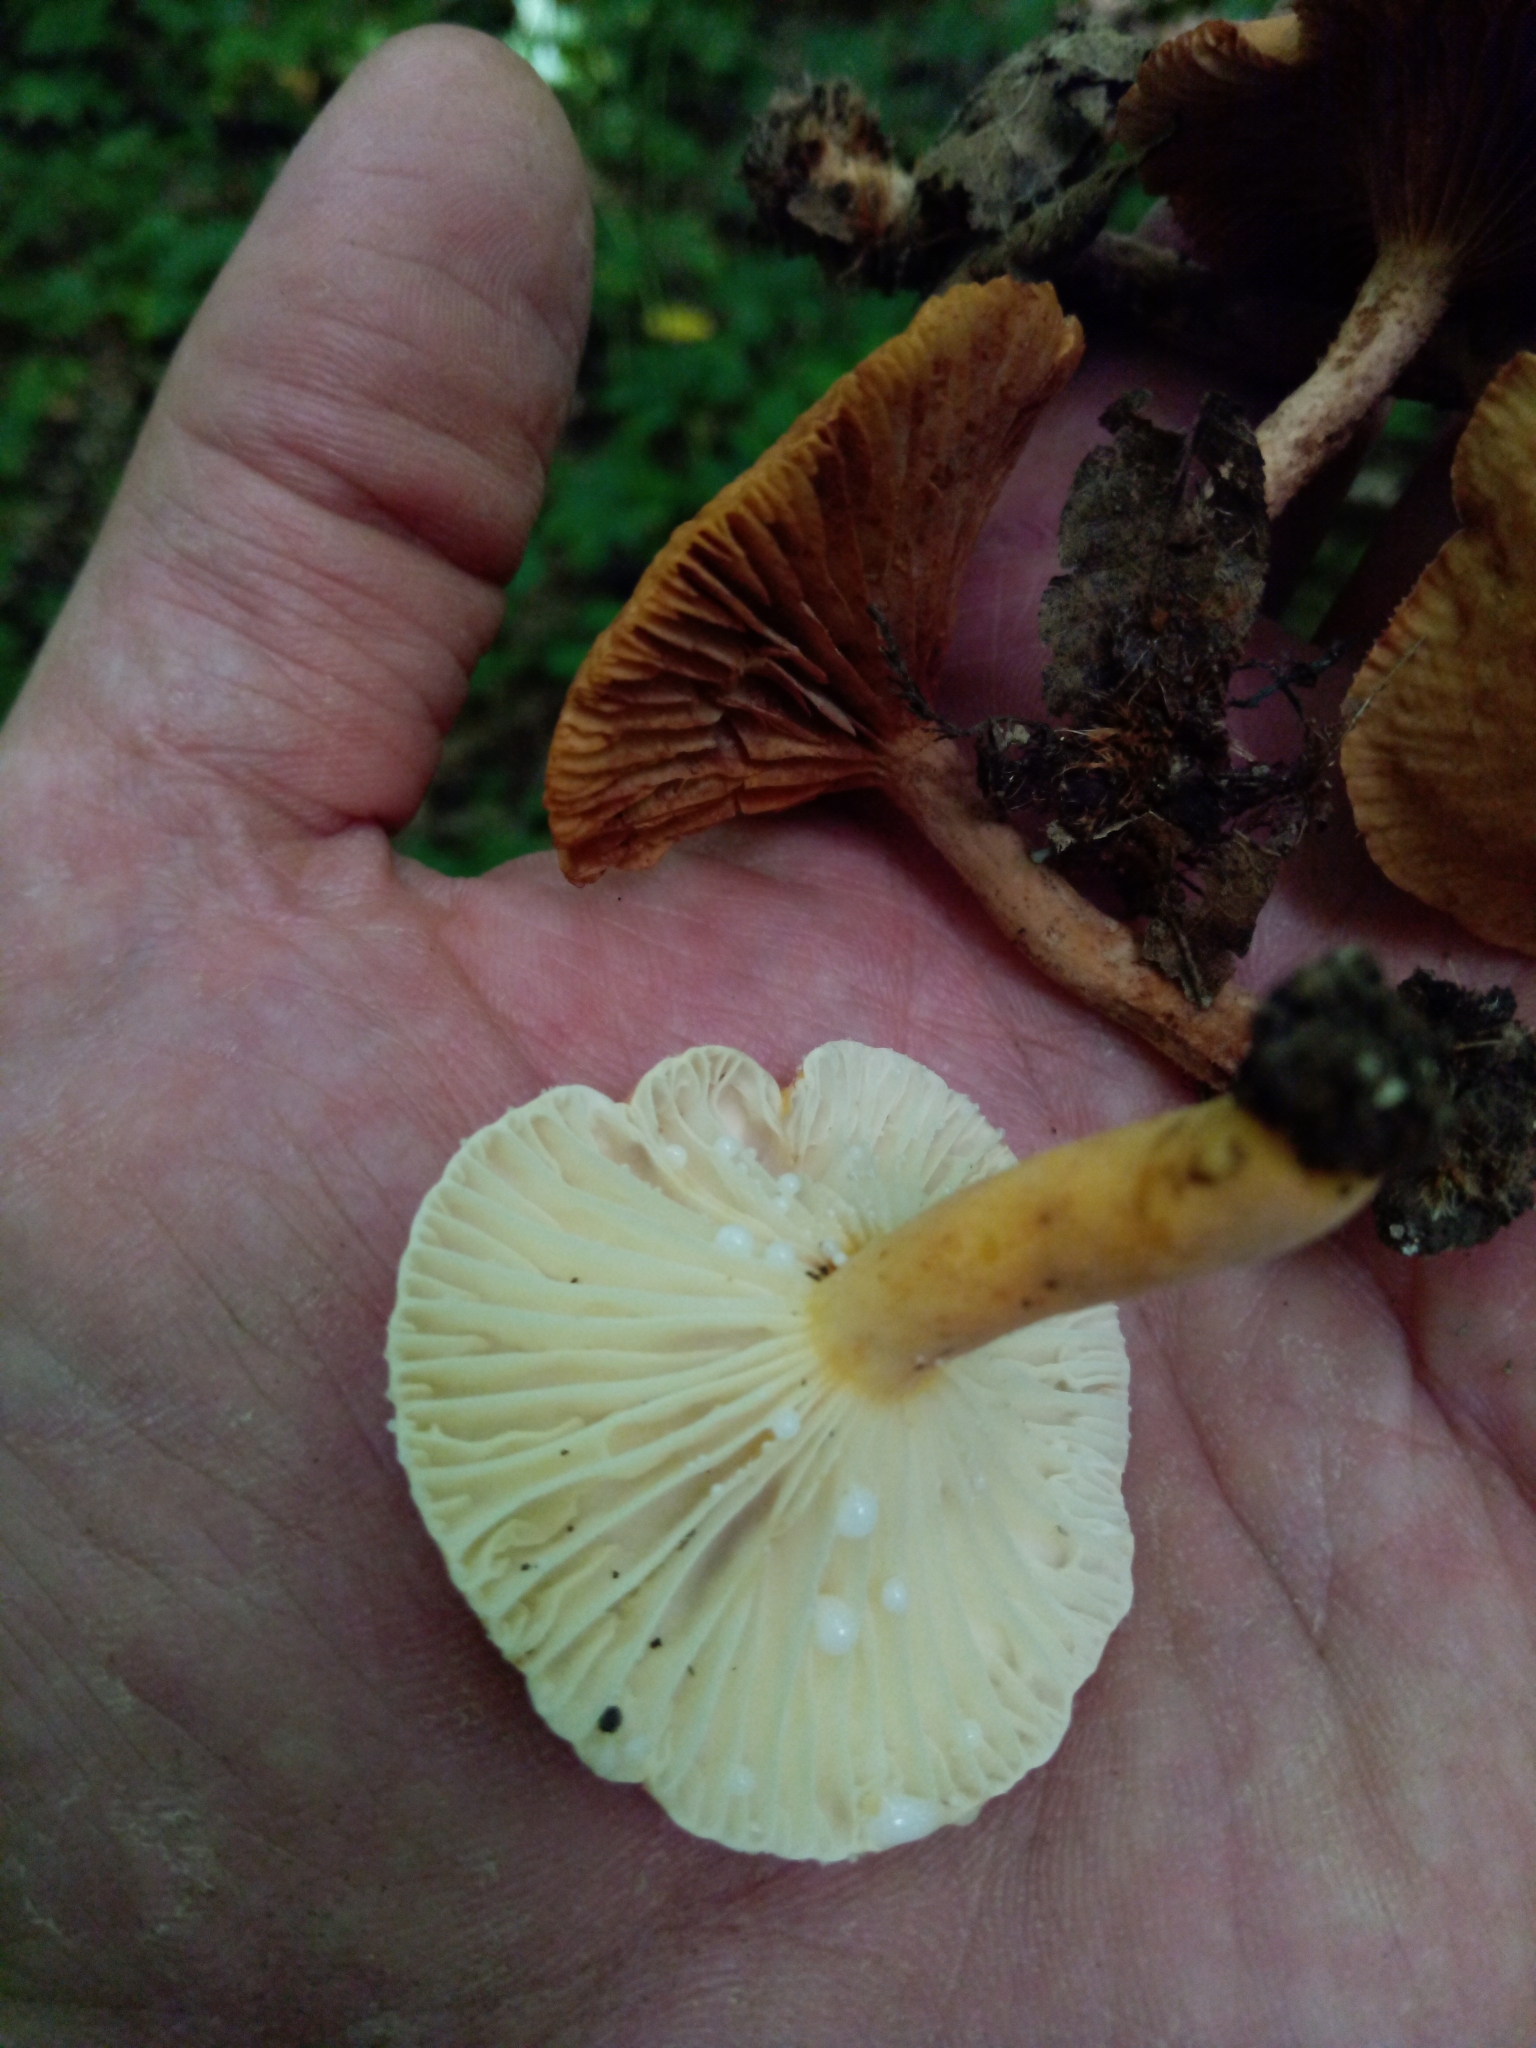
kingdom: Fungi
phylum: Basidiomycota
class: Agaricomycetes
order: Russulales
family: Russulaceae
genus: Lactarius
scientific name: Lactarius hygrophoroides
